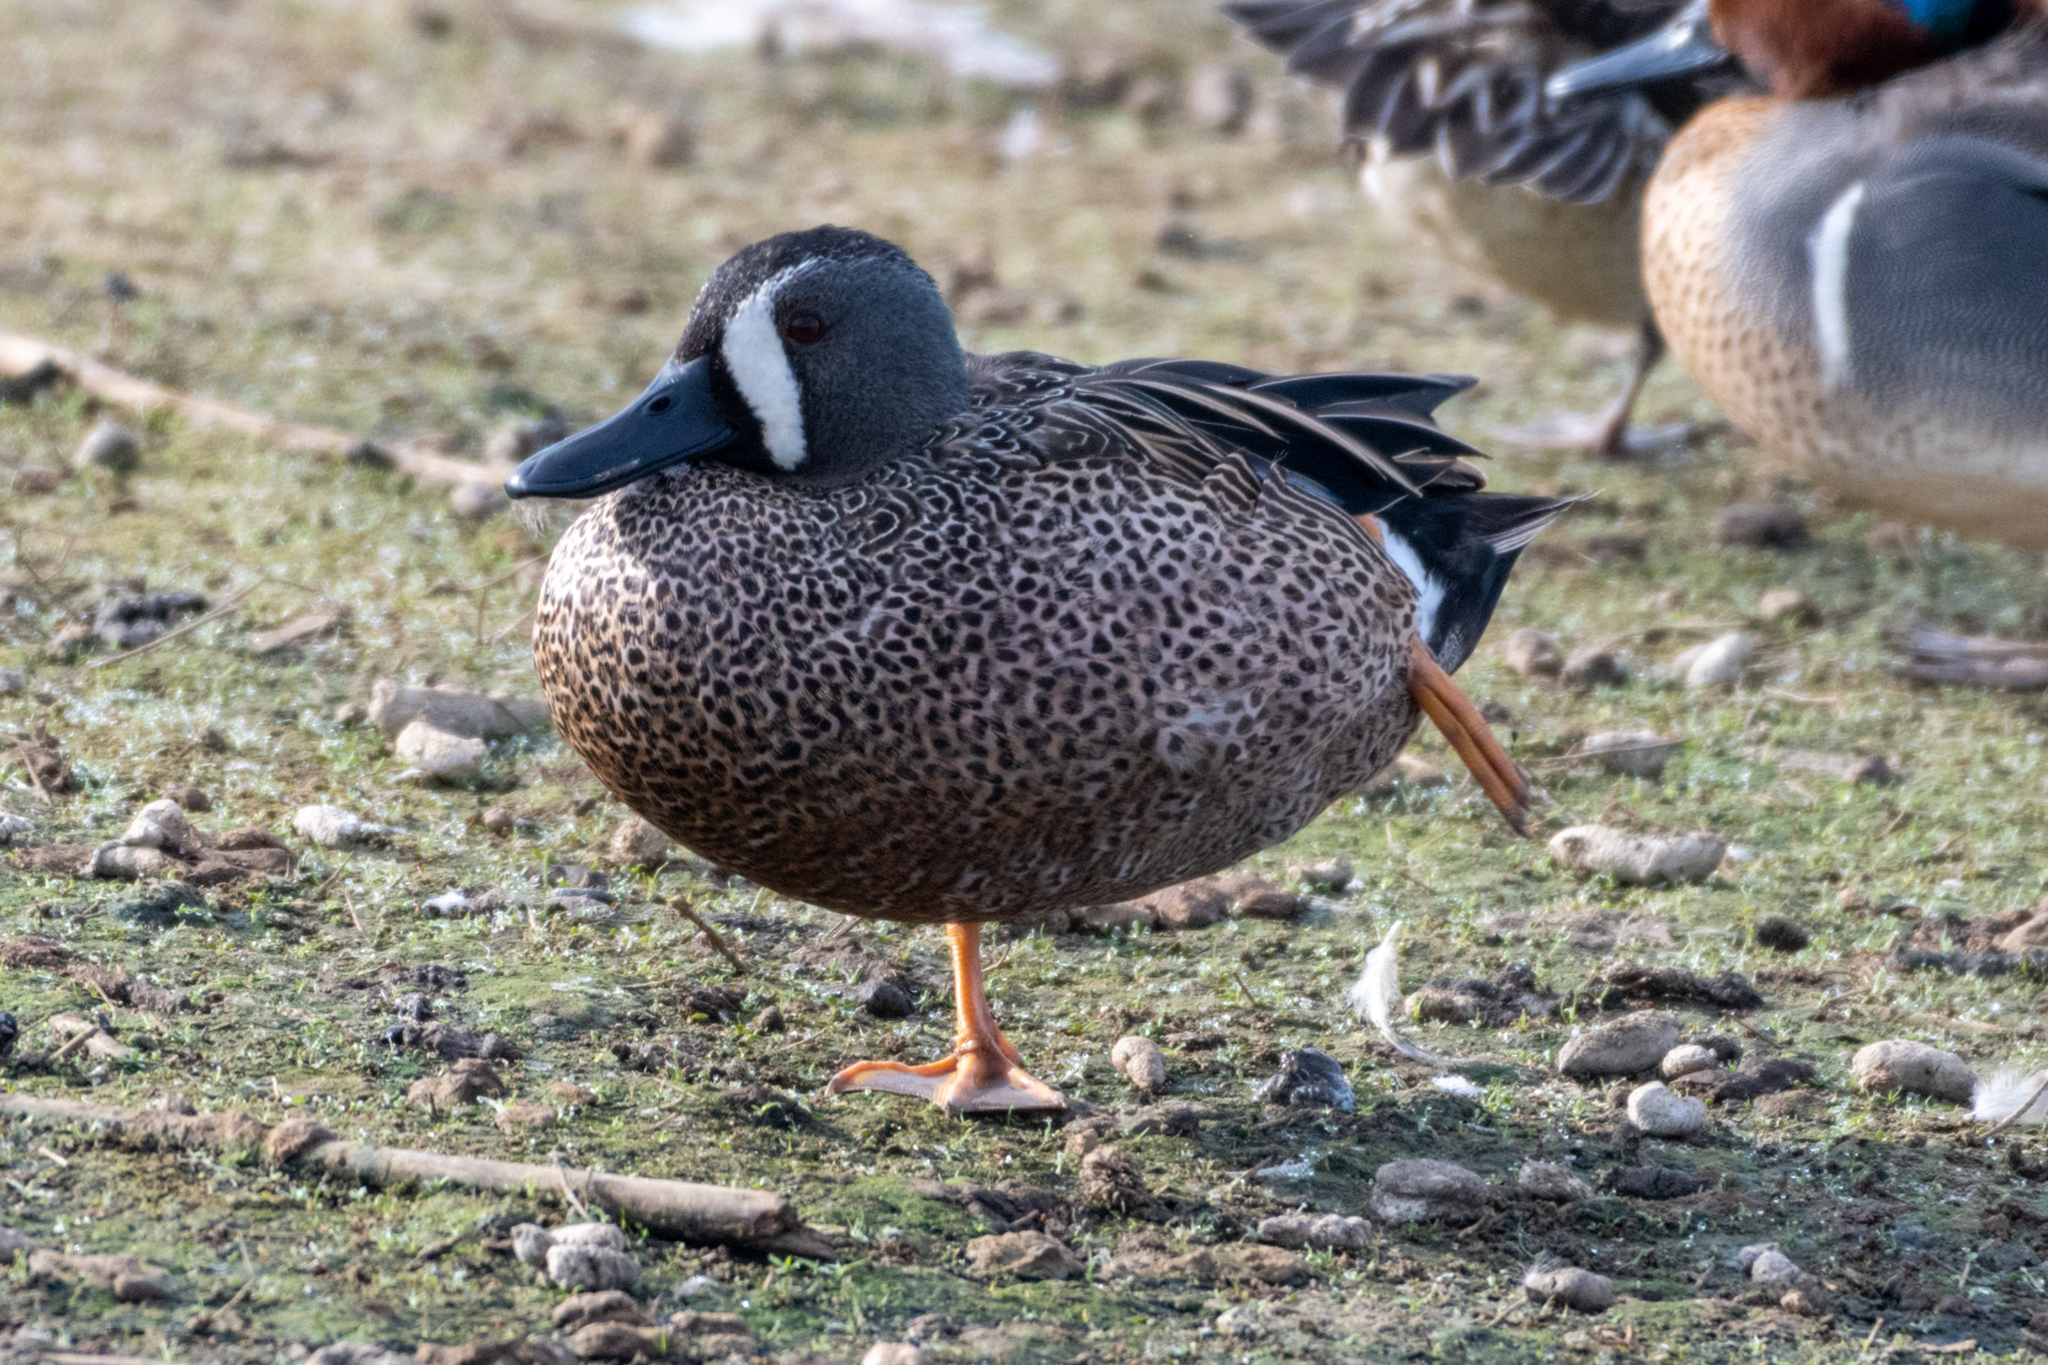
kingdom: Animalia
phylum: Chordata
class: Aves
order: Anseriformes
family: Anatidae
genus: Spatula
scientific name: Spatula discors
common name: Blue-winged teal
